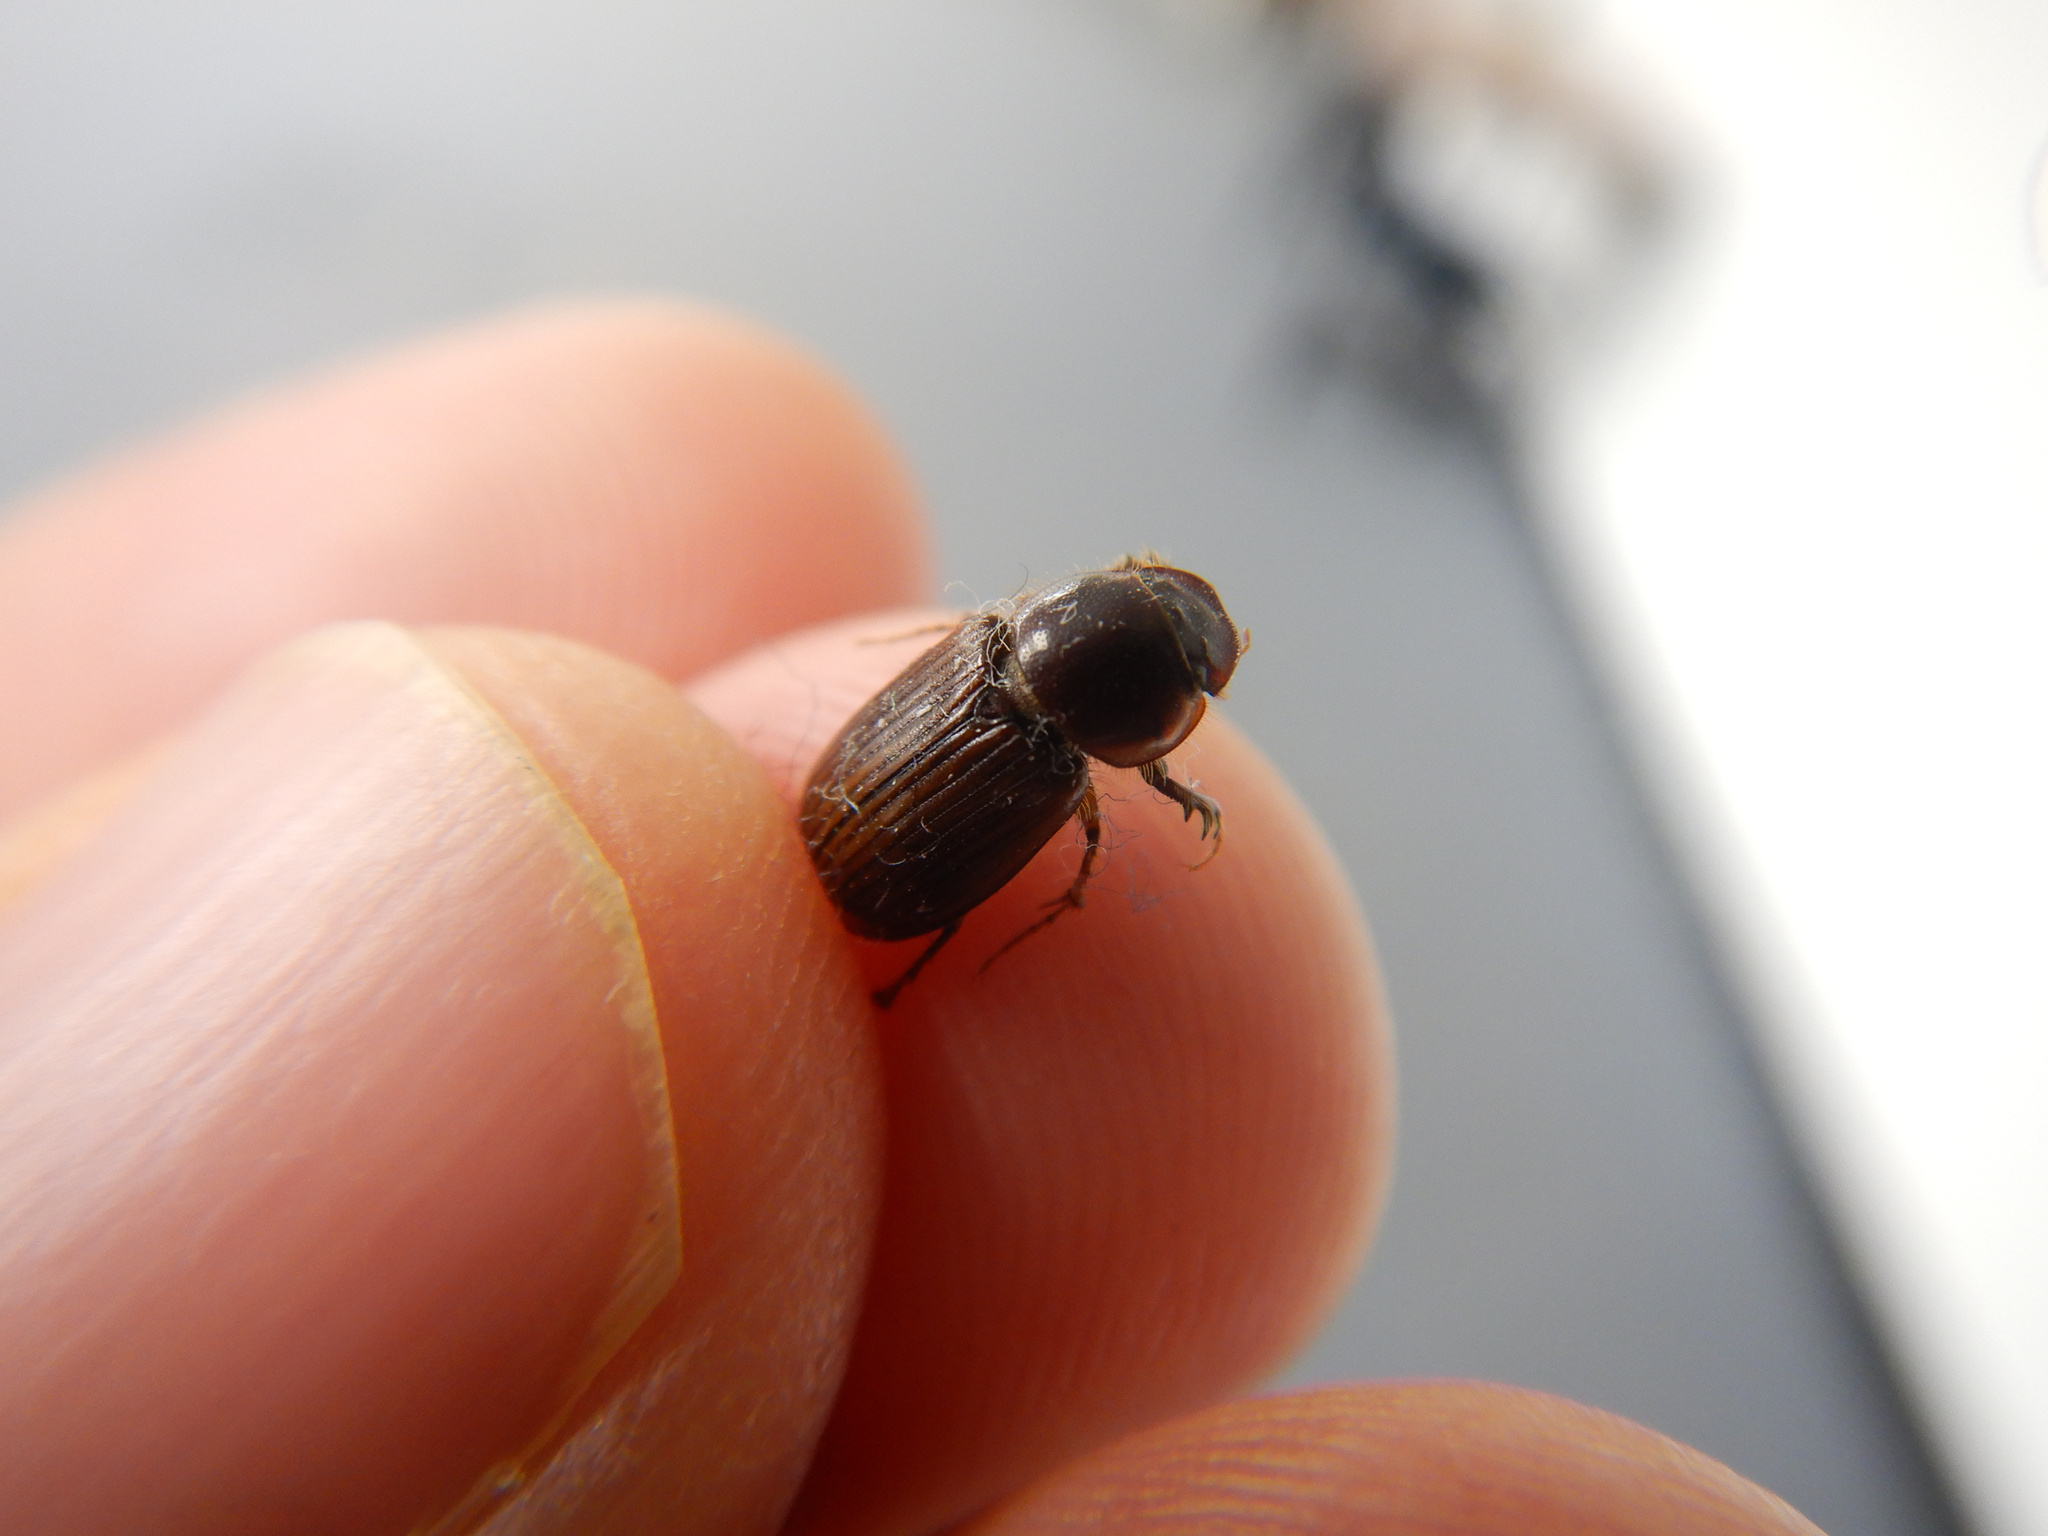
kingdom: Animalia
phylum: Arthropoda
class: Insecta
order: Coleoptera
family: Scarabaeidae
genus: Acrossidius
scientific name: Acrossidius tasmaniae
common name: Black-headed pasture cockchafer
